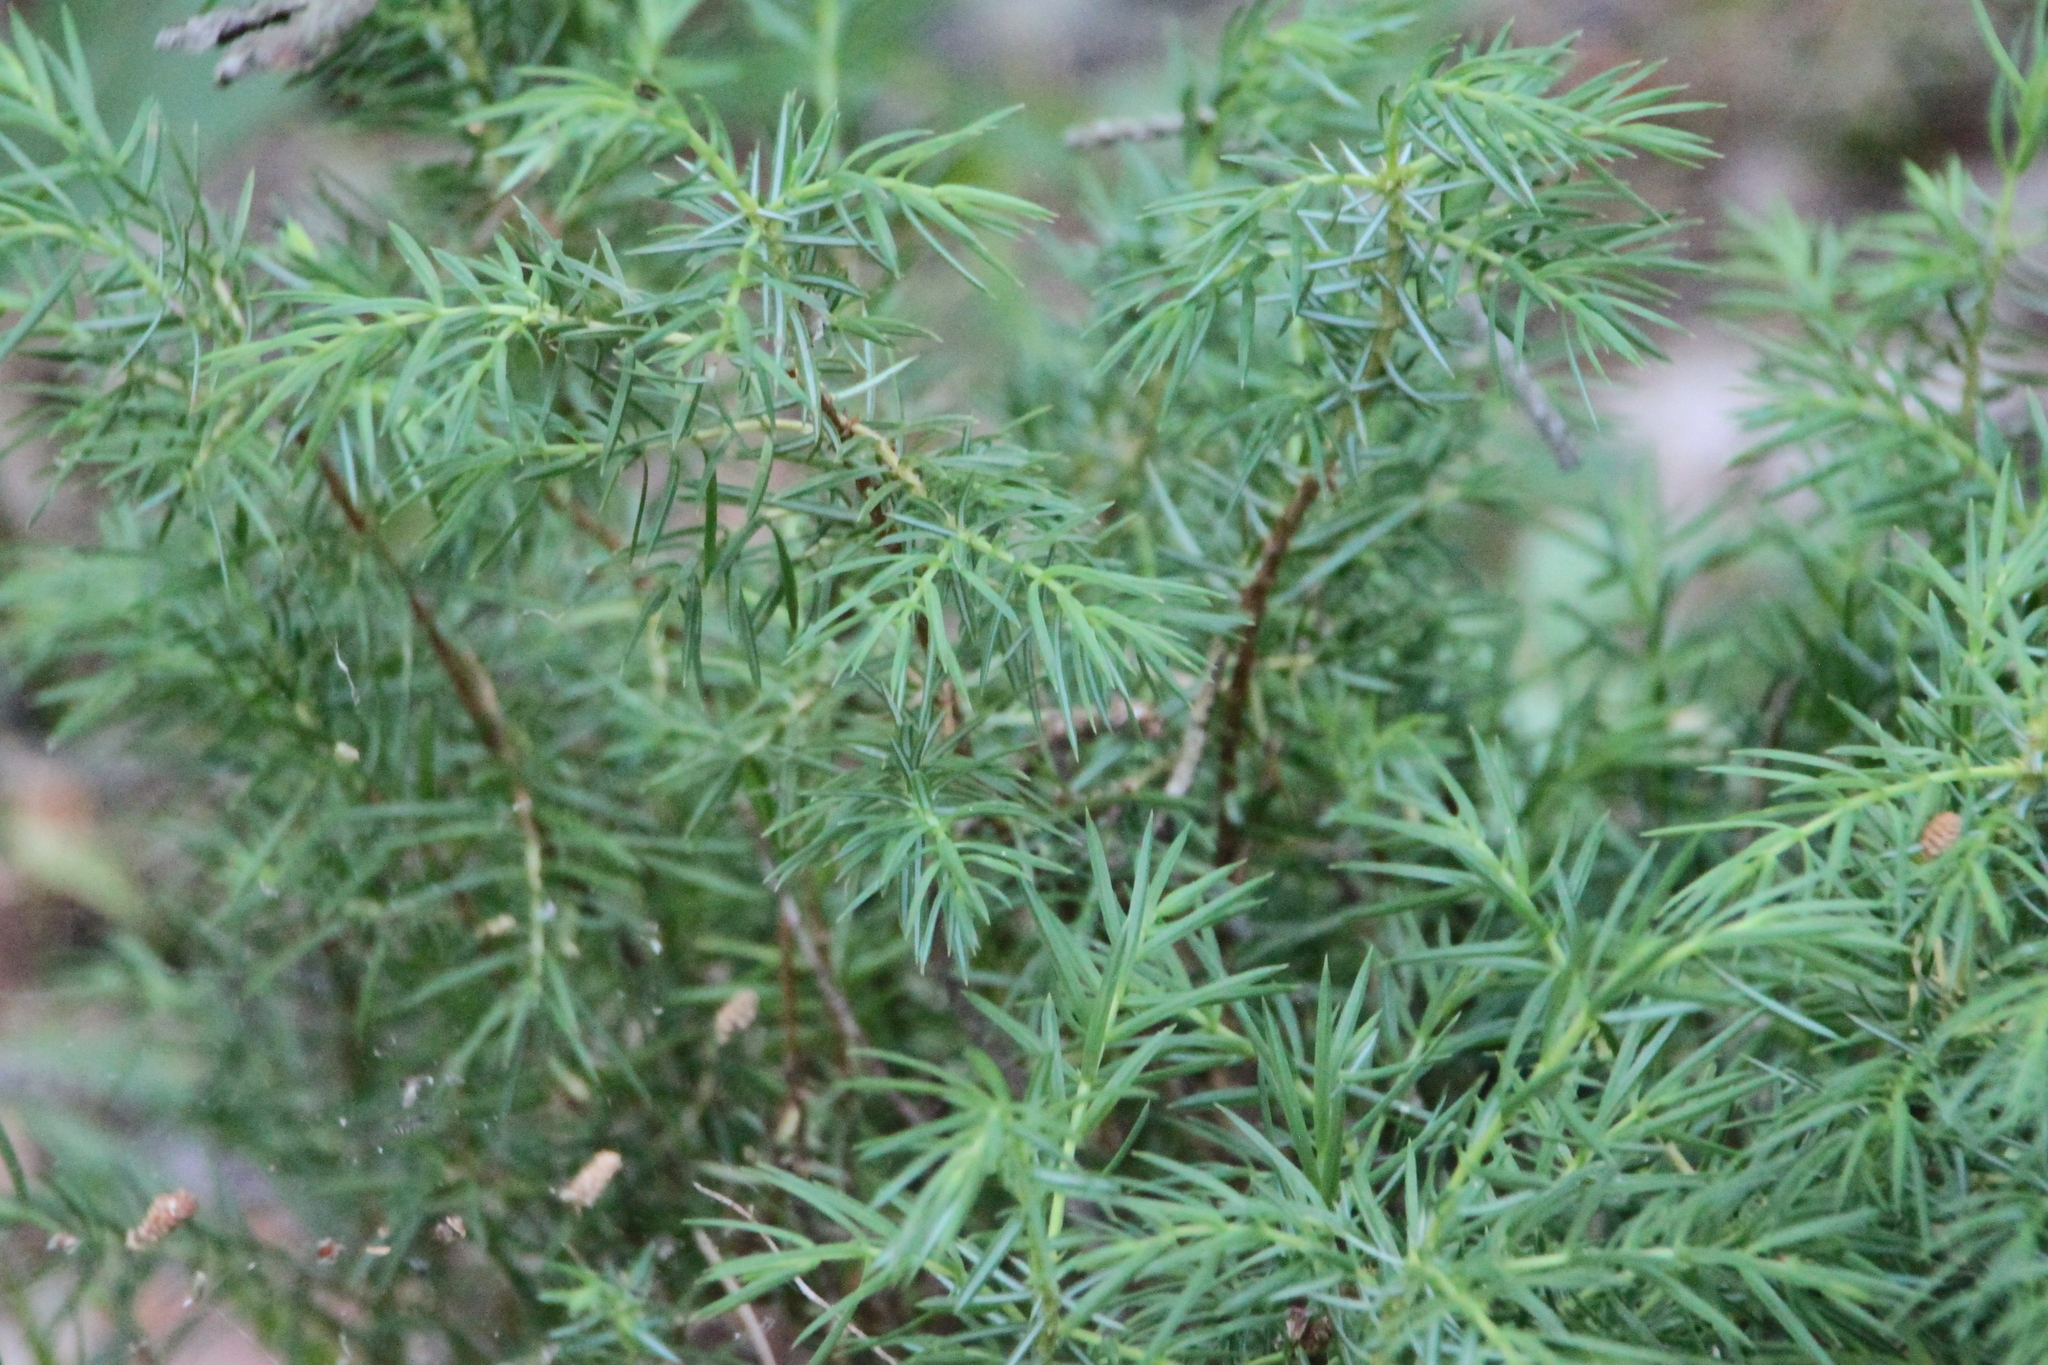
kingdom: Plantae
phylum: Tracheophyta
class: Pinopsida
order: Pinales
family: Cupressaceae
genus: Juniperus
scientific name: Juniperus communis
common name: Common juniper
